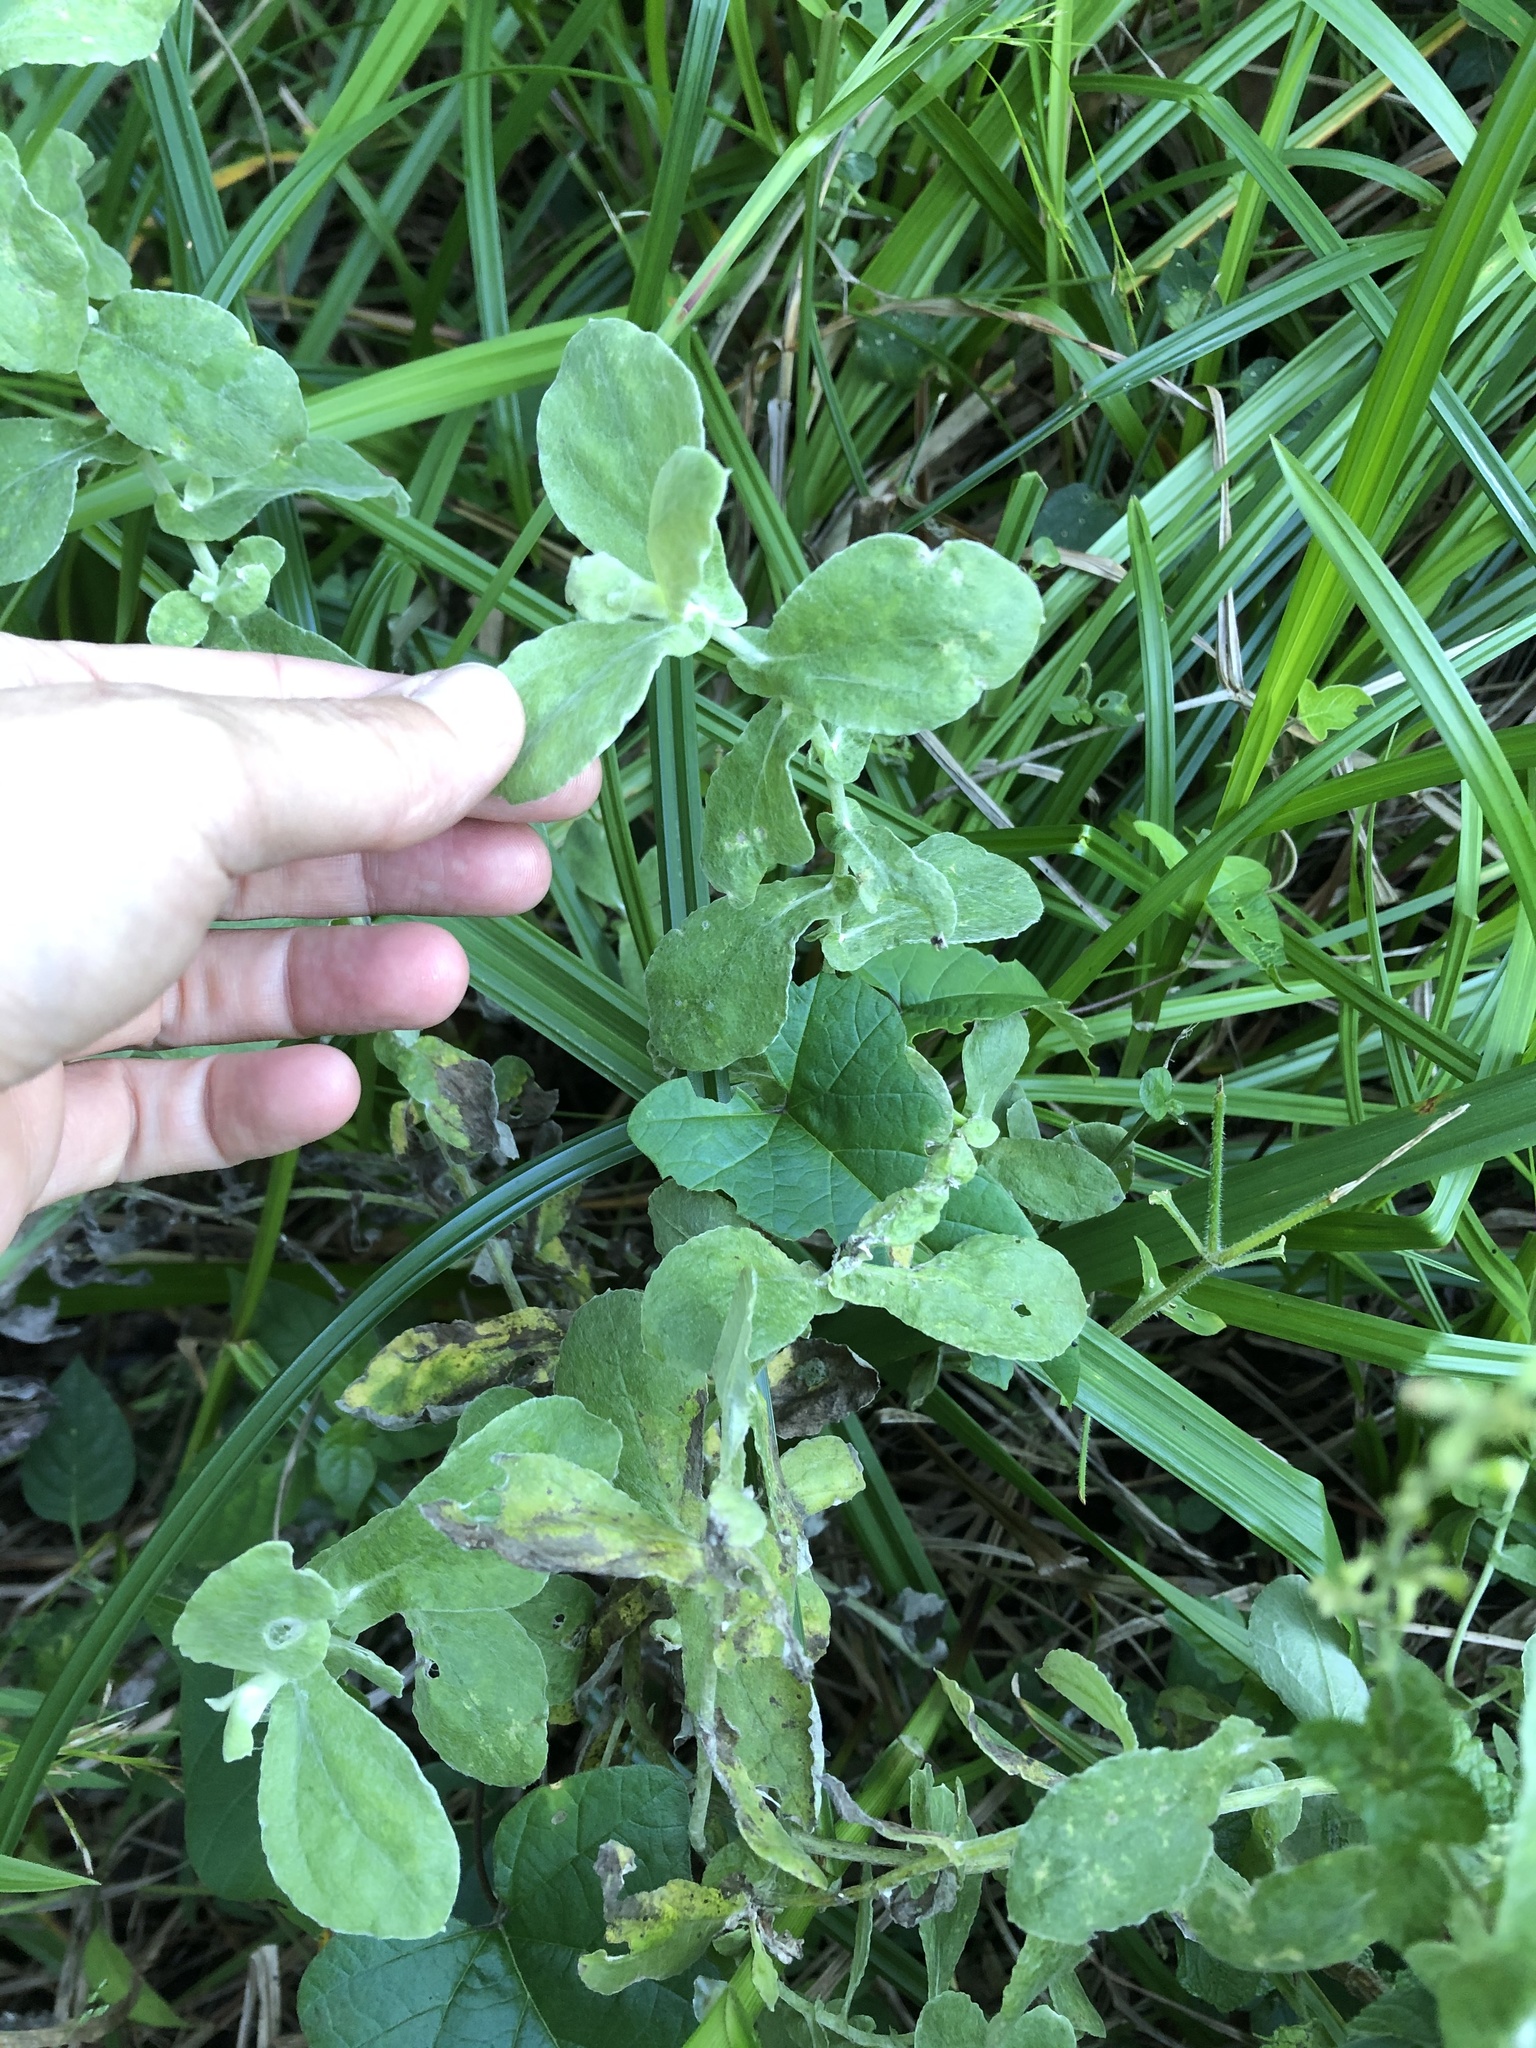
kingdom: Plantae
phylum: Tracheophyta
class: Magnoliopsida
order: Asterales
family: Asteraceae
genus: Helichrysum
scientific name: Helichrysum panduratum
